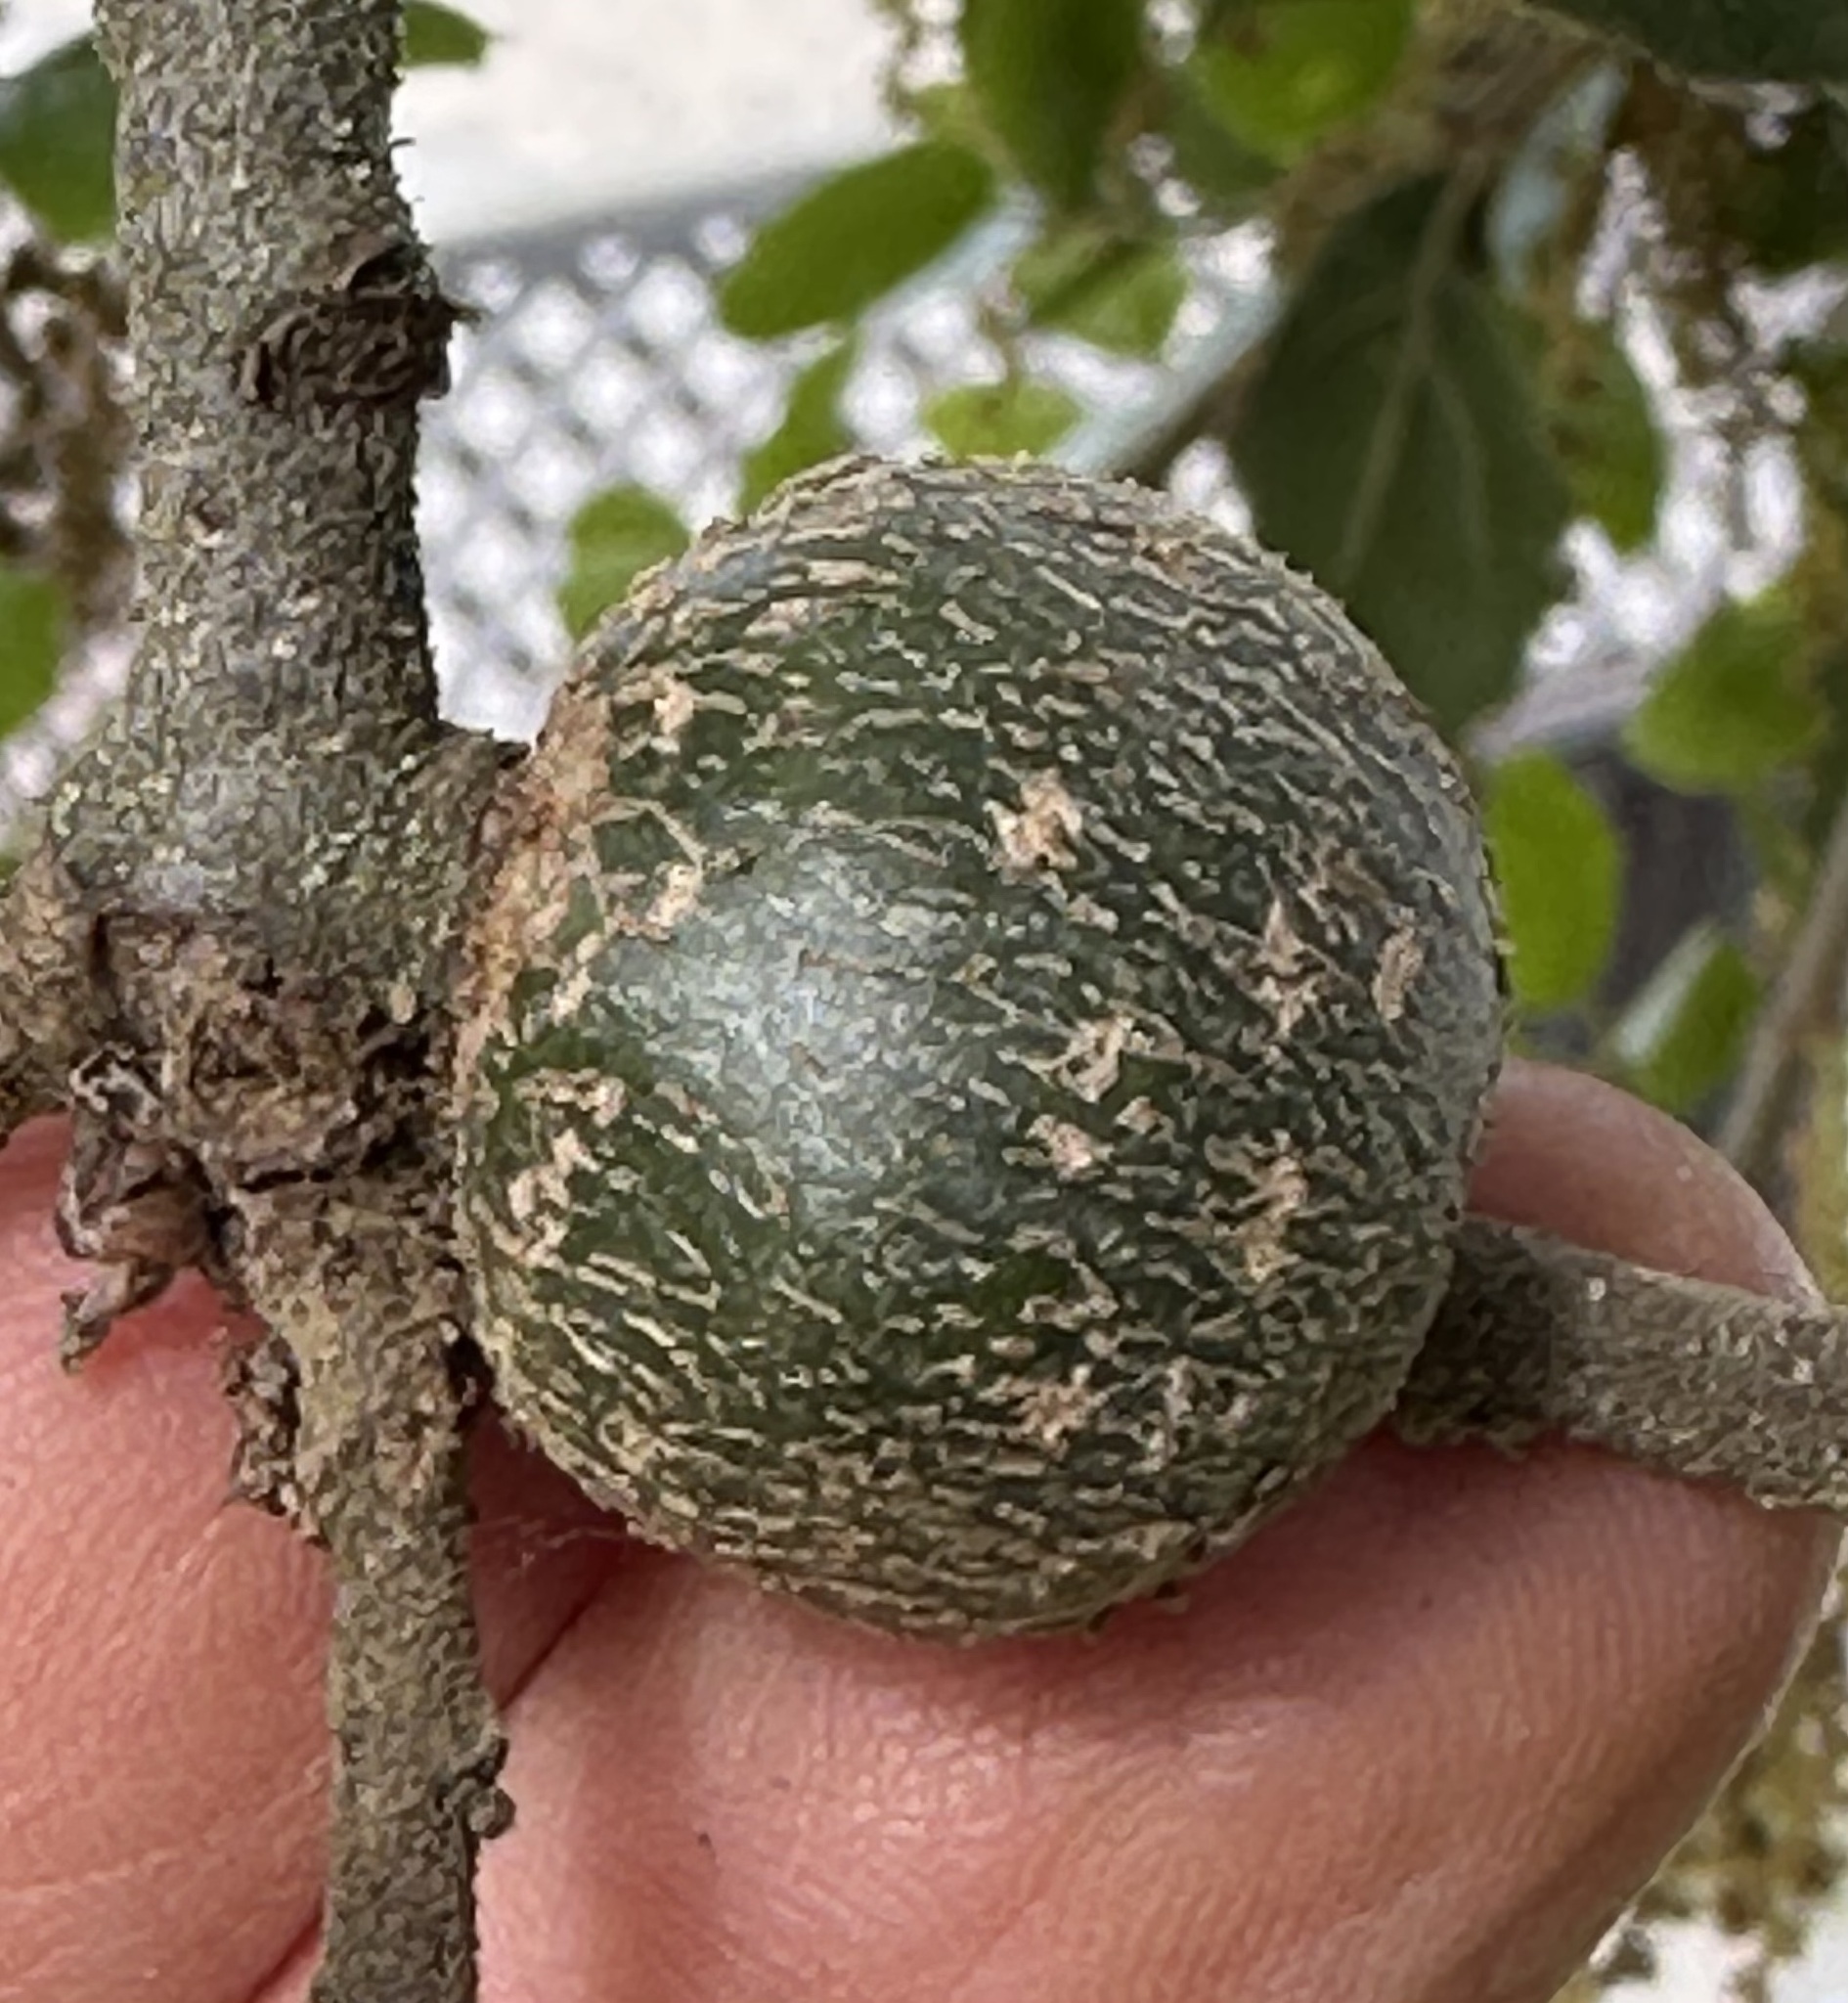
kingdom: Animalia
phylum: Arthropoda
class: Insecta
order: Hymenoptera
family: Cynipidae
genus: Callirhytis
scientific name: Callirhytis
